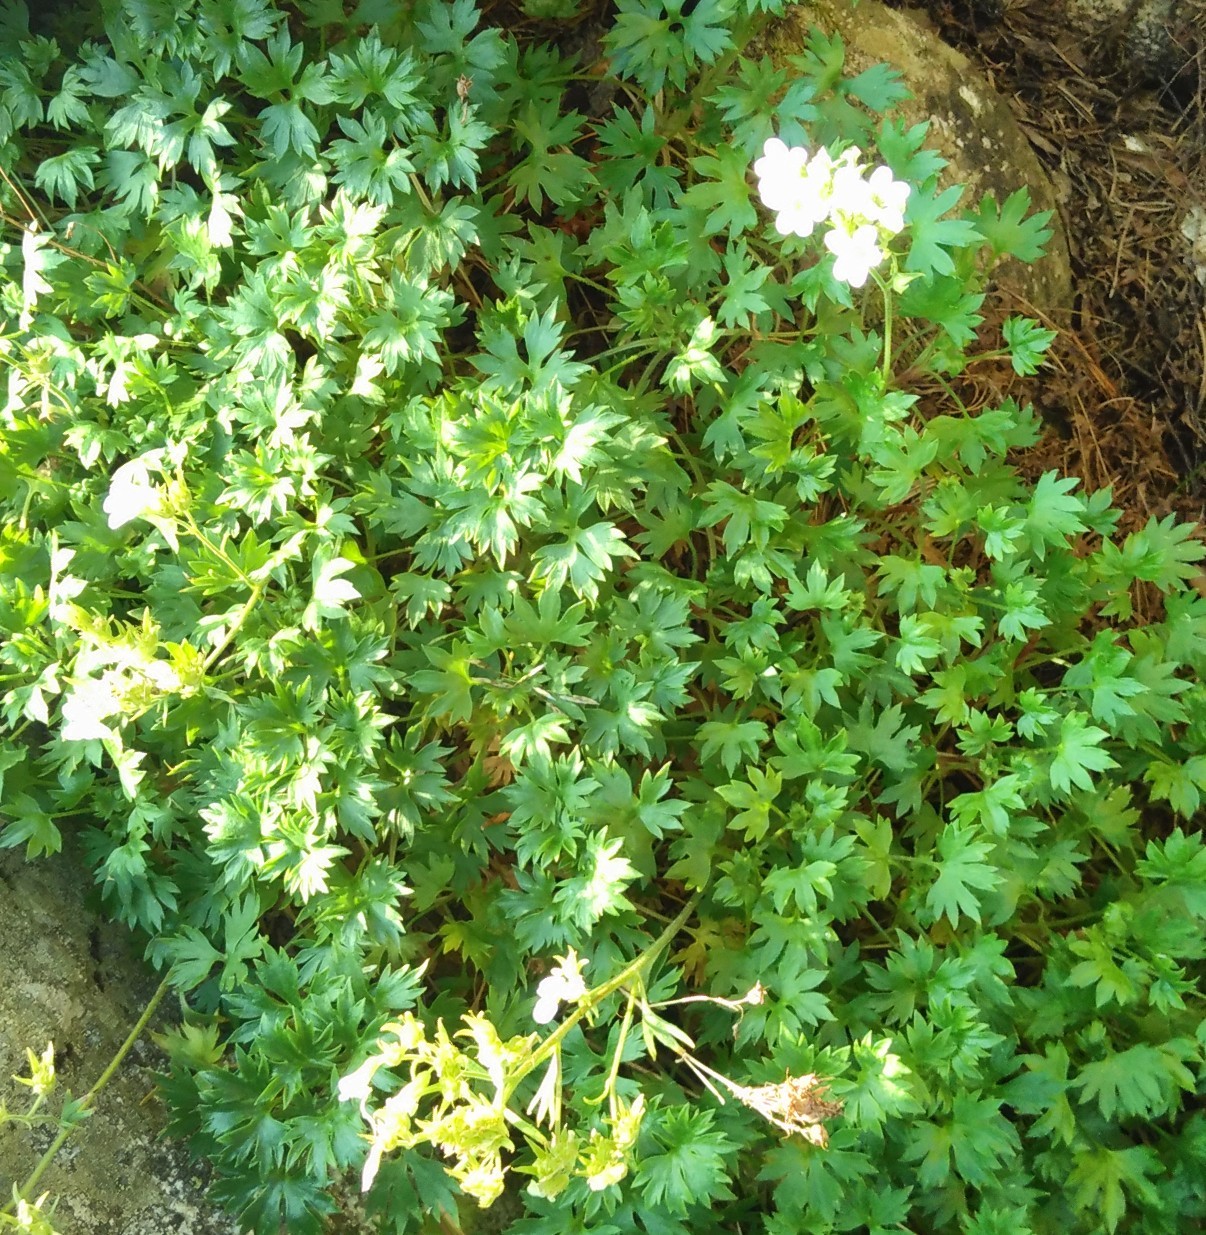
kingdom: Plantae
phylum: Tracheophyta
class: Magnoliopsida
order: Saxifragales
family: Saxifragaceae
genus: Saxifraga
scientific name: Saxifraga geranioides
